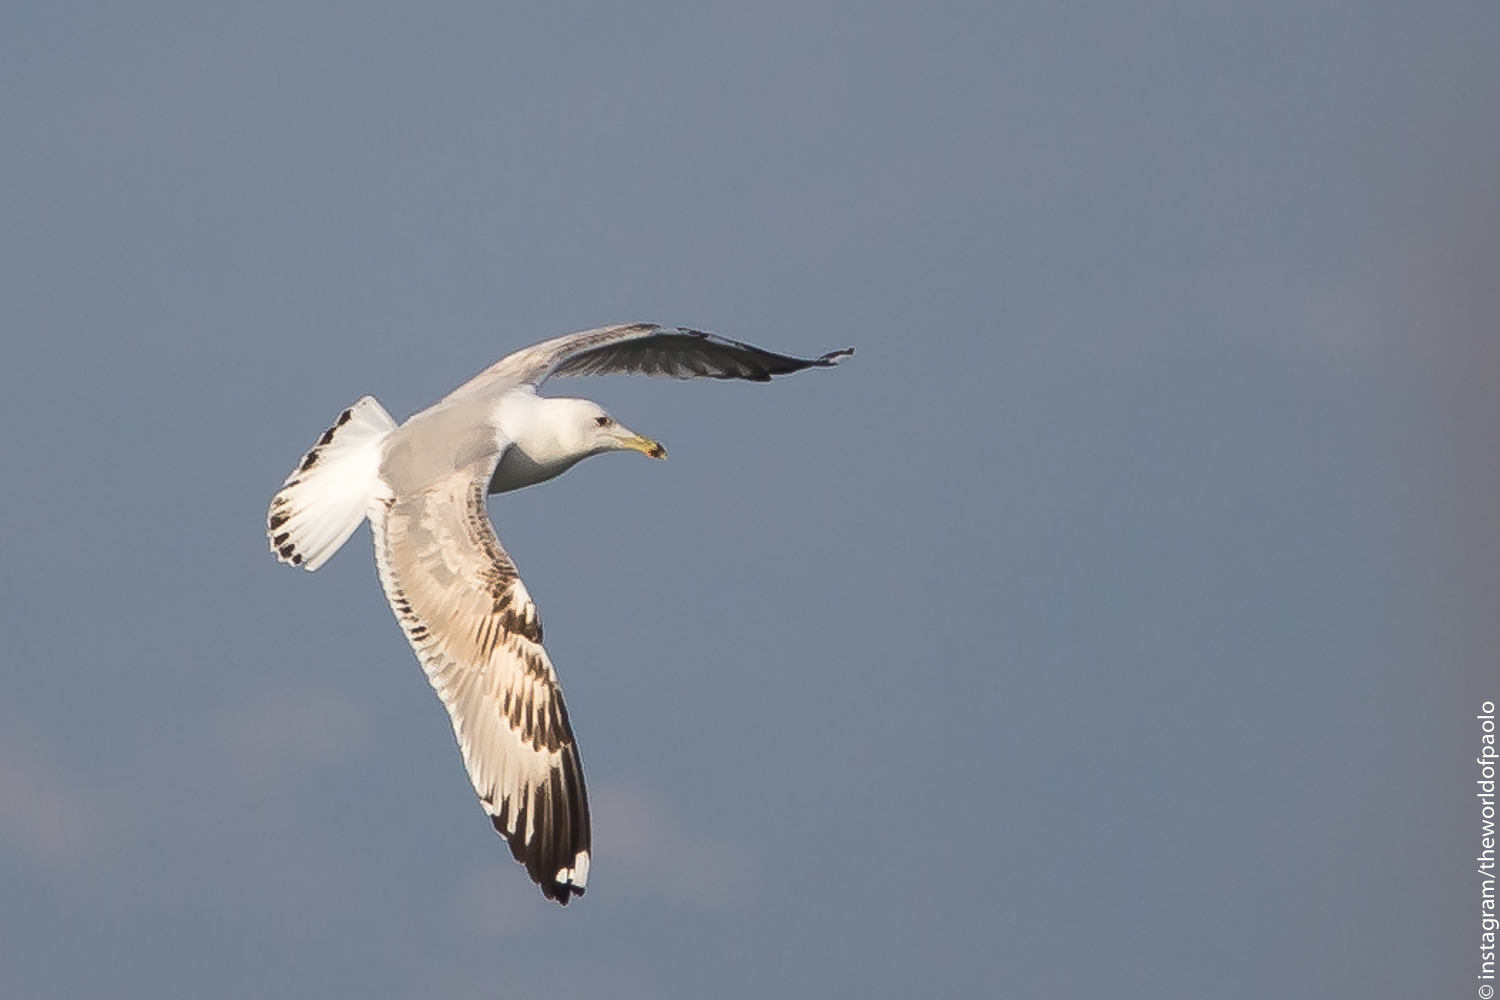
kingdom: Animalia
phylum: Chordata
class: Aves
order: Charadriiformes
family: Laridae
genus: Larus
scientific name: Larus cachinnans
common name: Caspian gull
